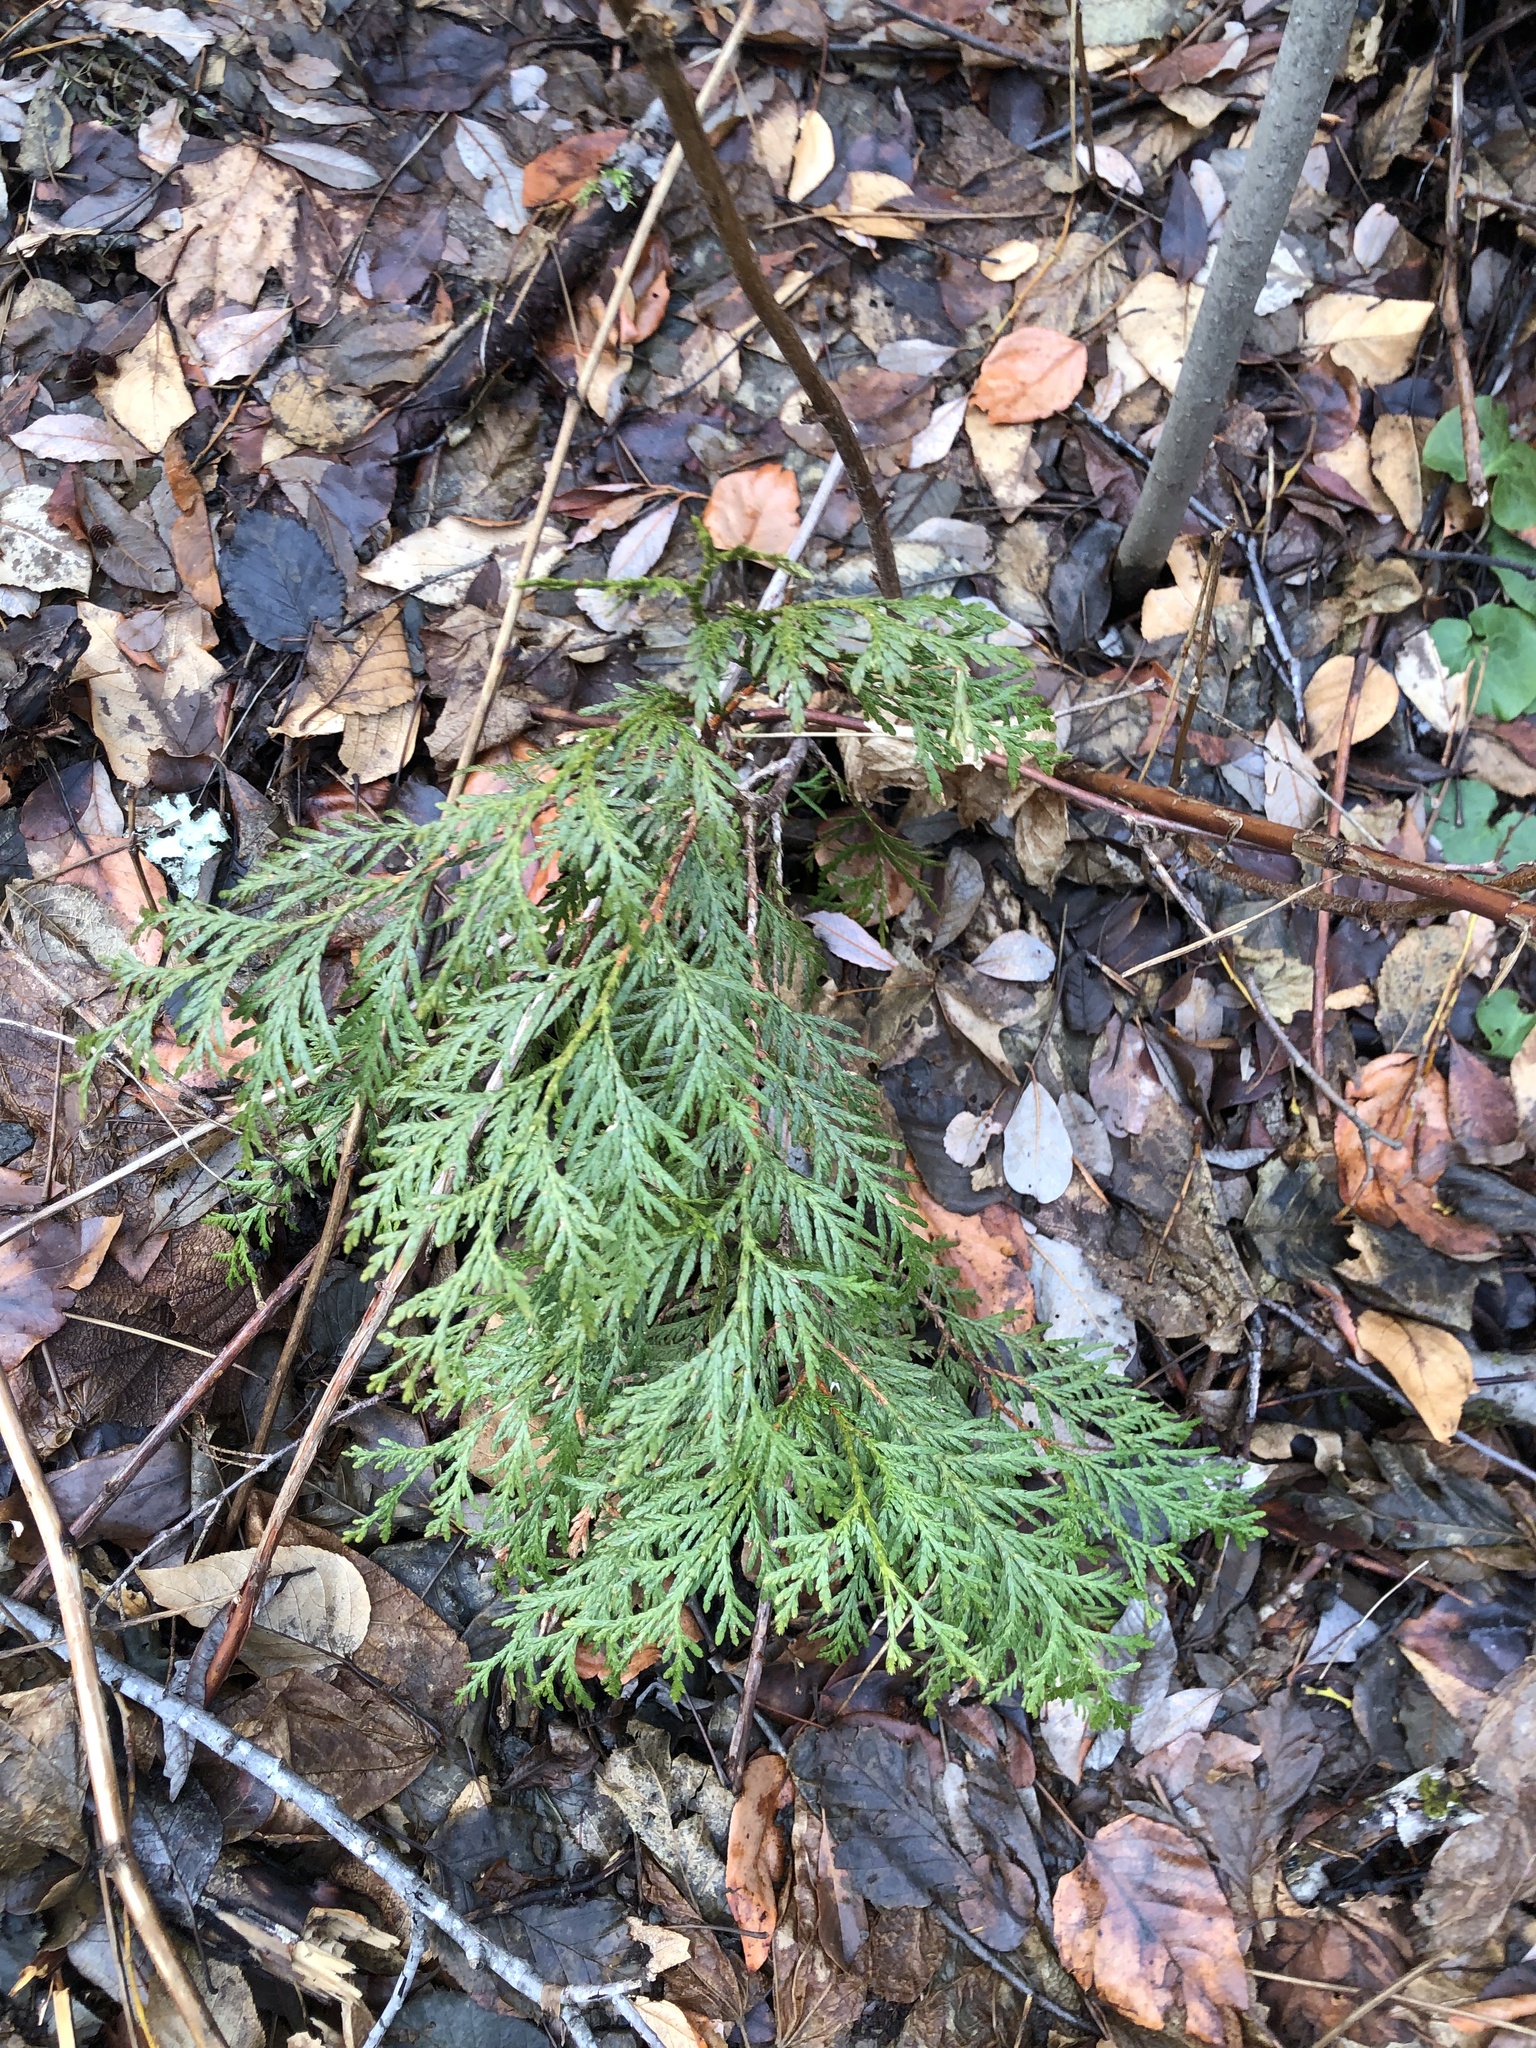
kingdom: Plantae
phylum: Tracheophyta
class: Pinopsida
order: Pinales
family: Cupressaceae
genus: Thuja
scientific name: Thuja plicata
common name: Western red-cedar
